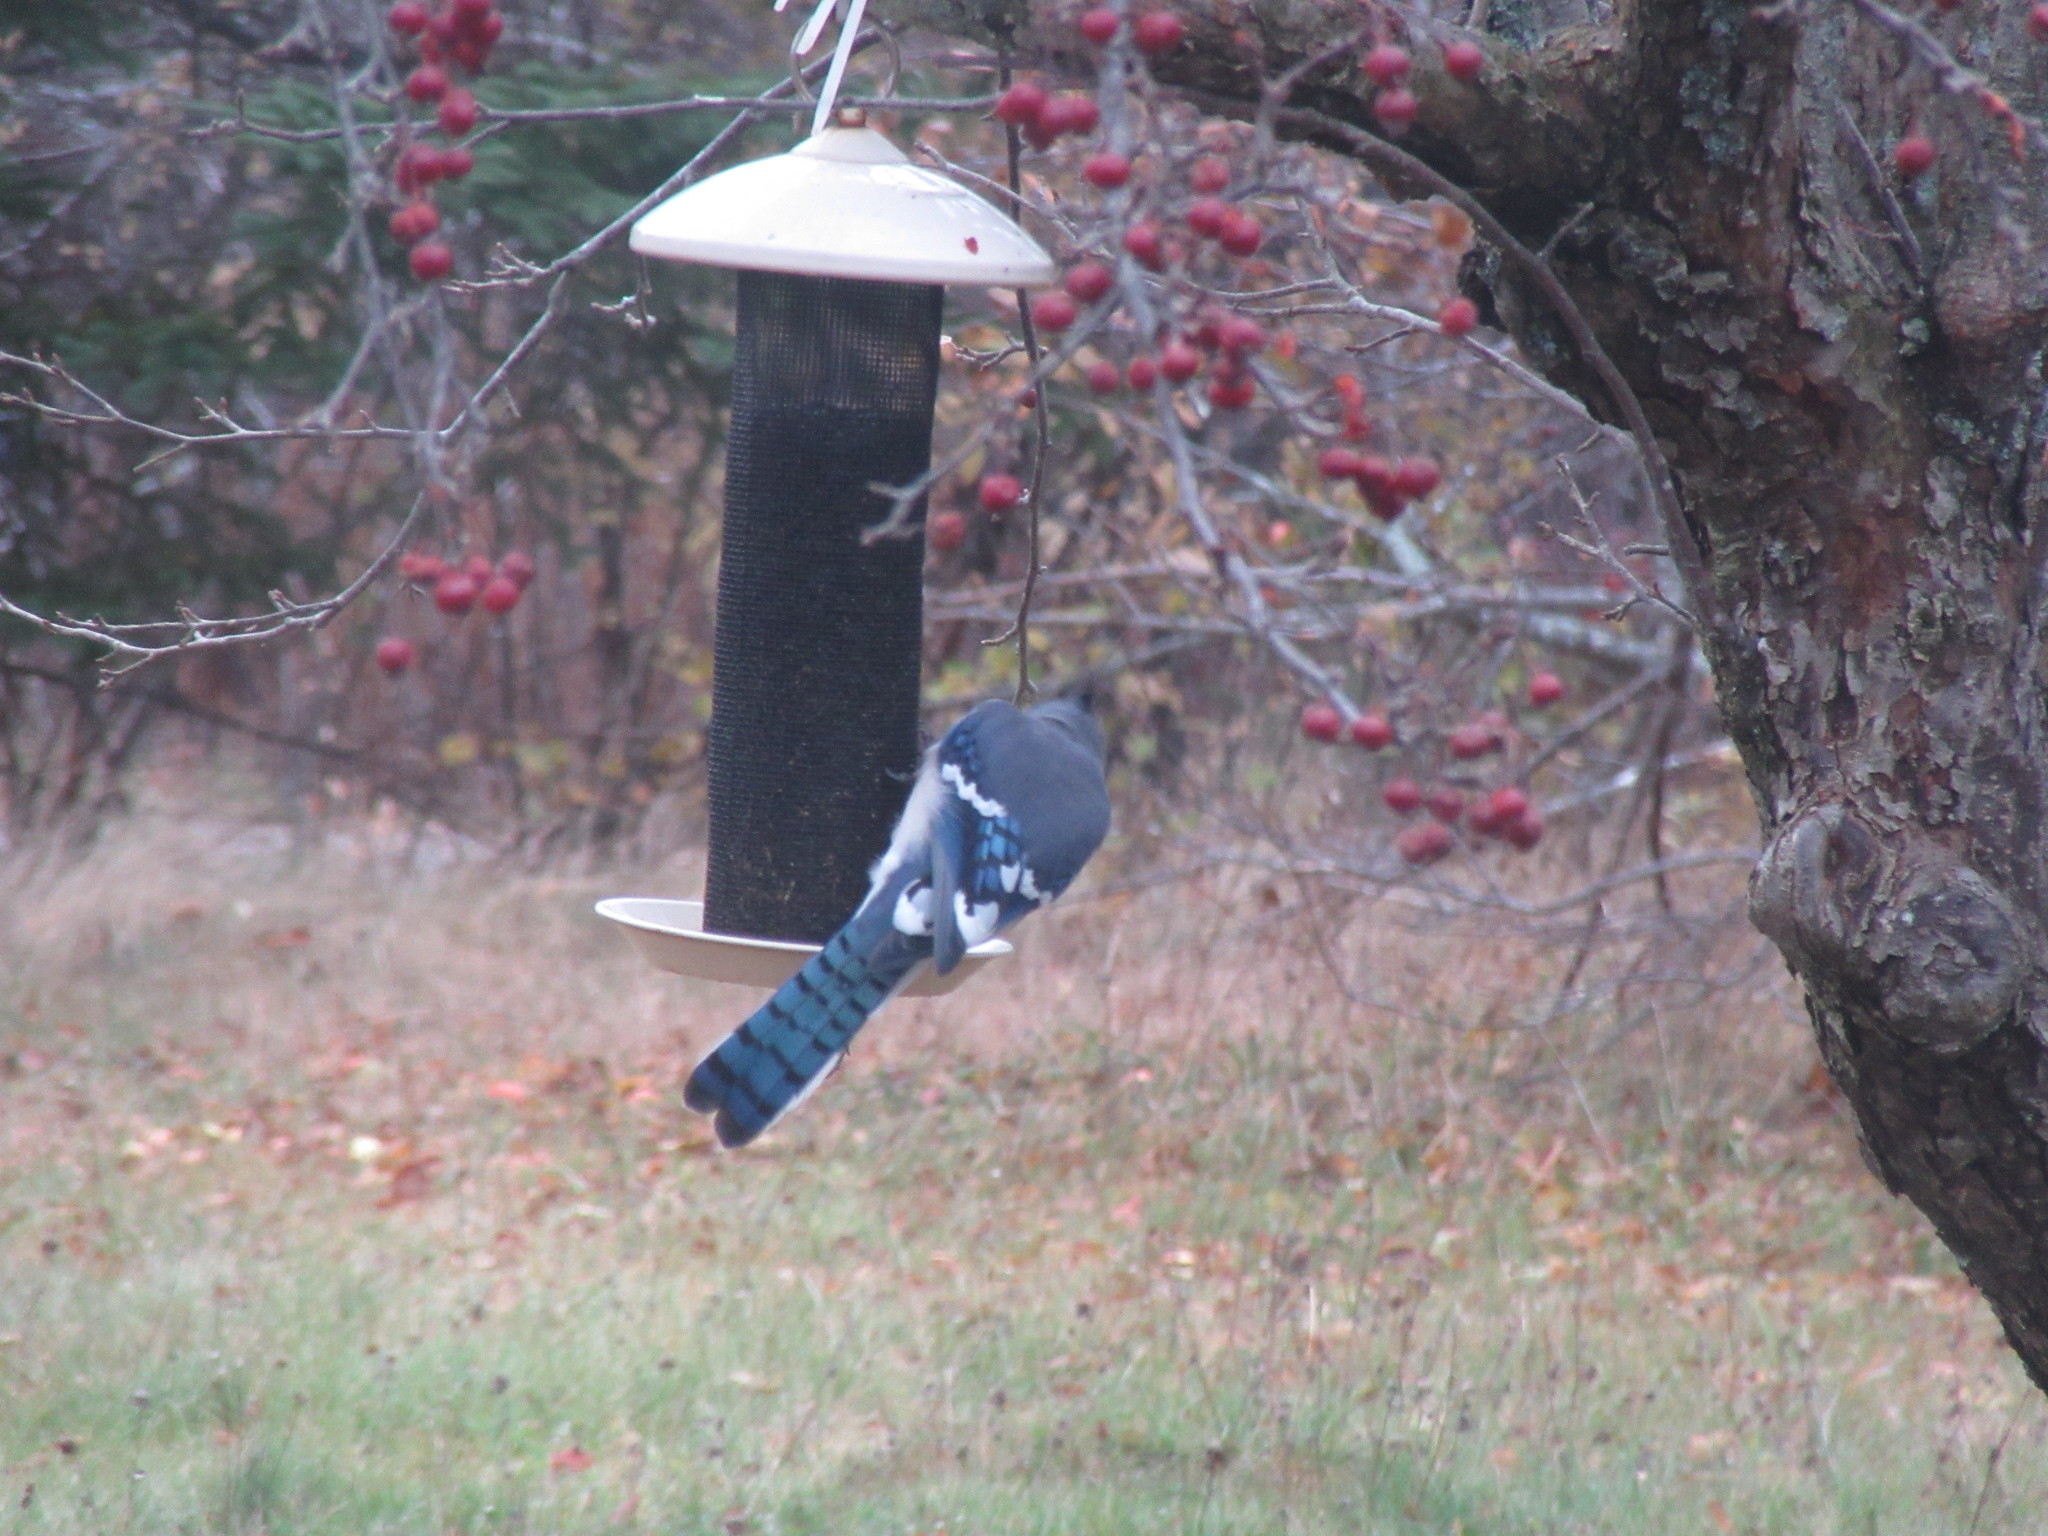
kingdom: Animalia
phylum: Chordata
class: Aves
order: Passeriformes
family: Corvidae
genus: Cyanocitta
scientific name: Cyanocitta cristata
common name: Blue jay
